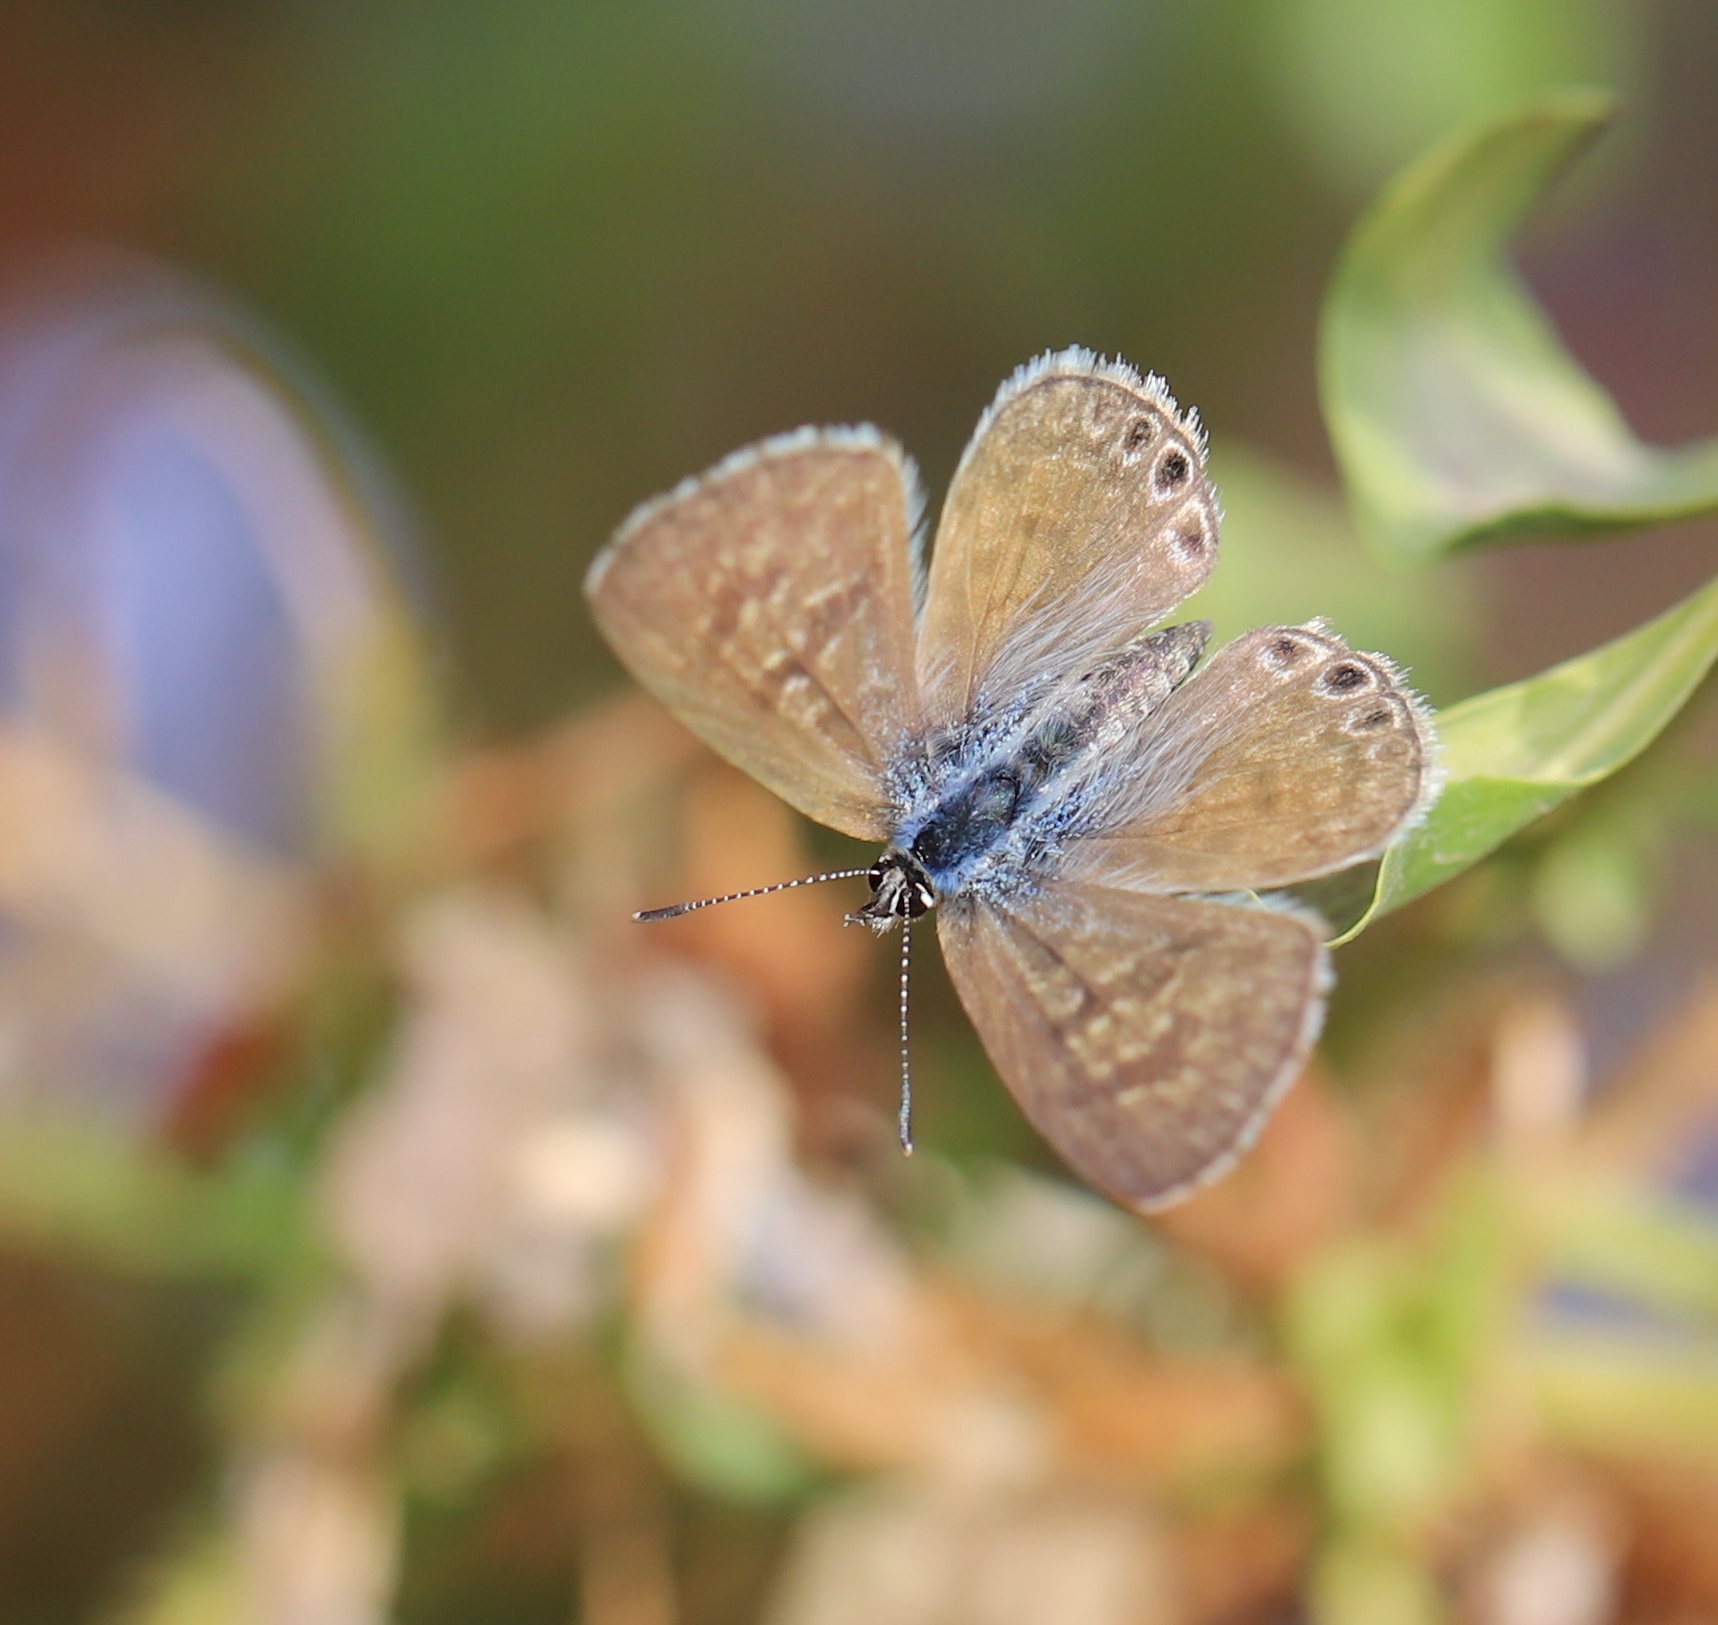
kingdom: Animalia
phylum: Arthropoda
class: Insecta
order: Lepidoptera
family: Lycaenidae
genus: Leptotes
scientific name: Leptotes trigemmatus
